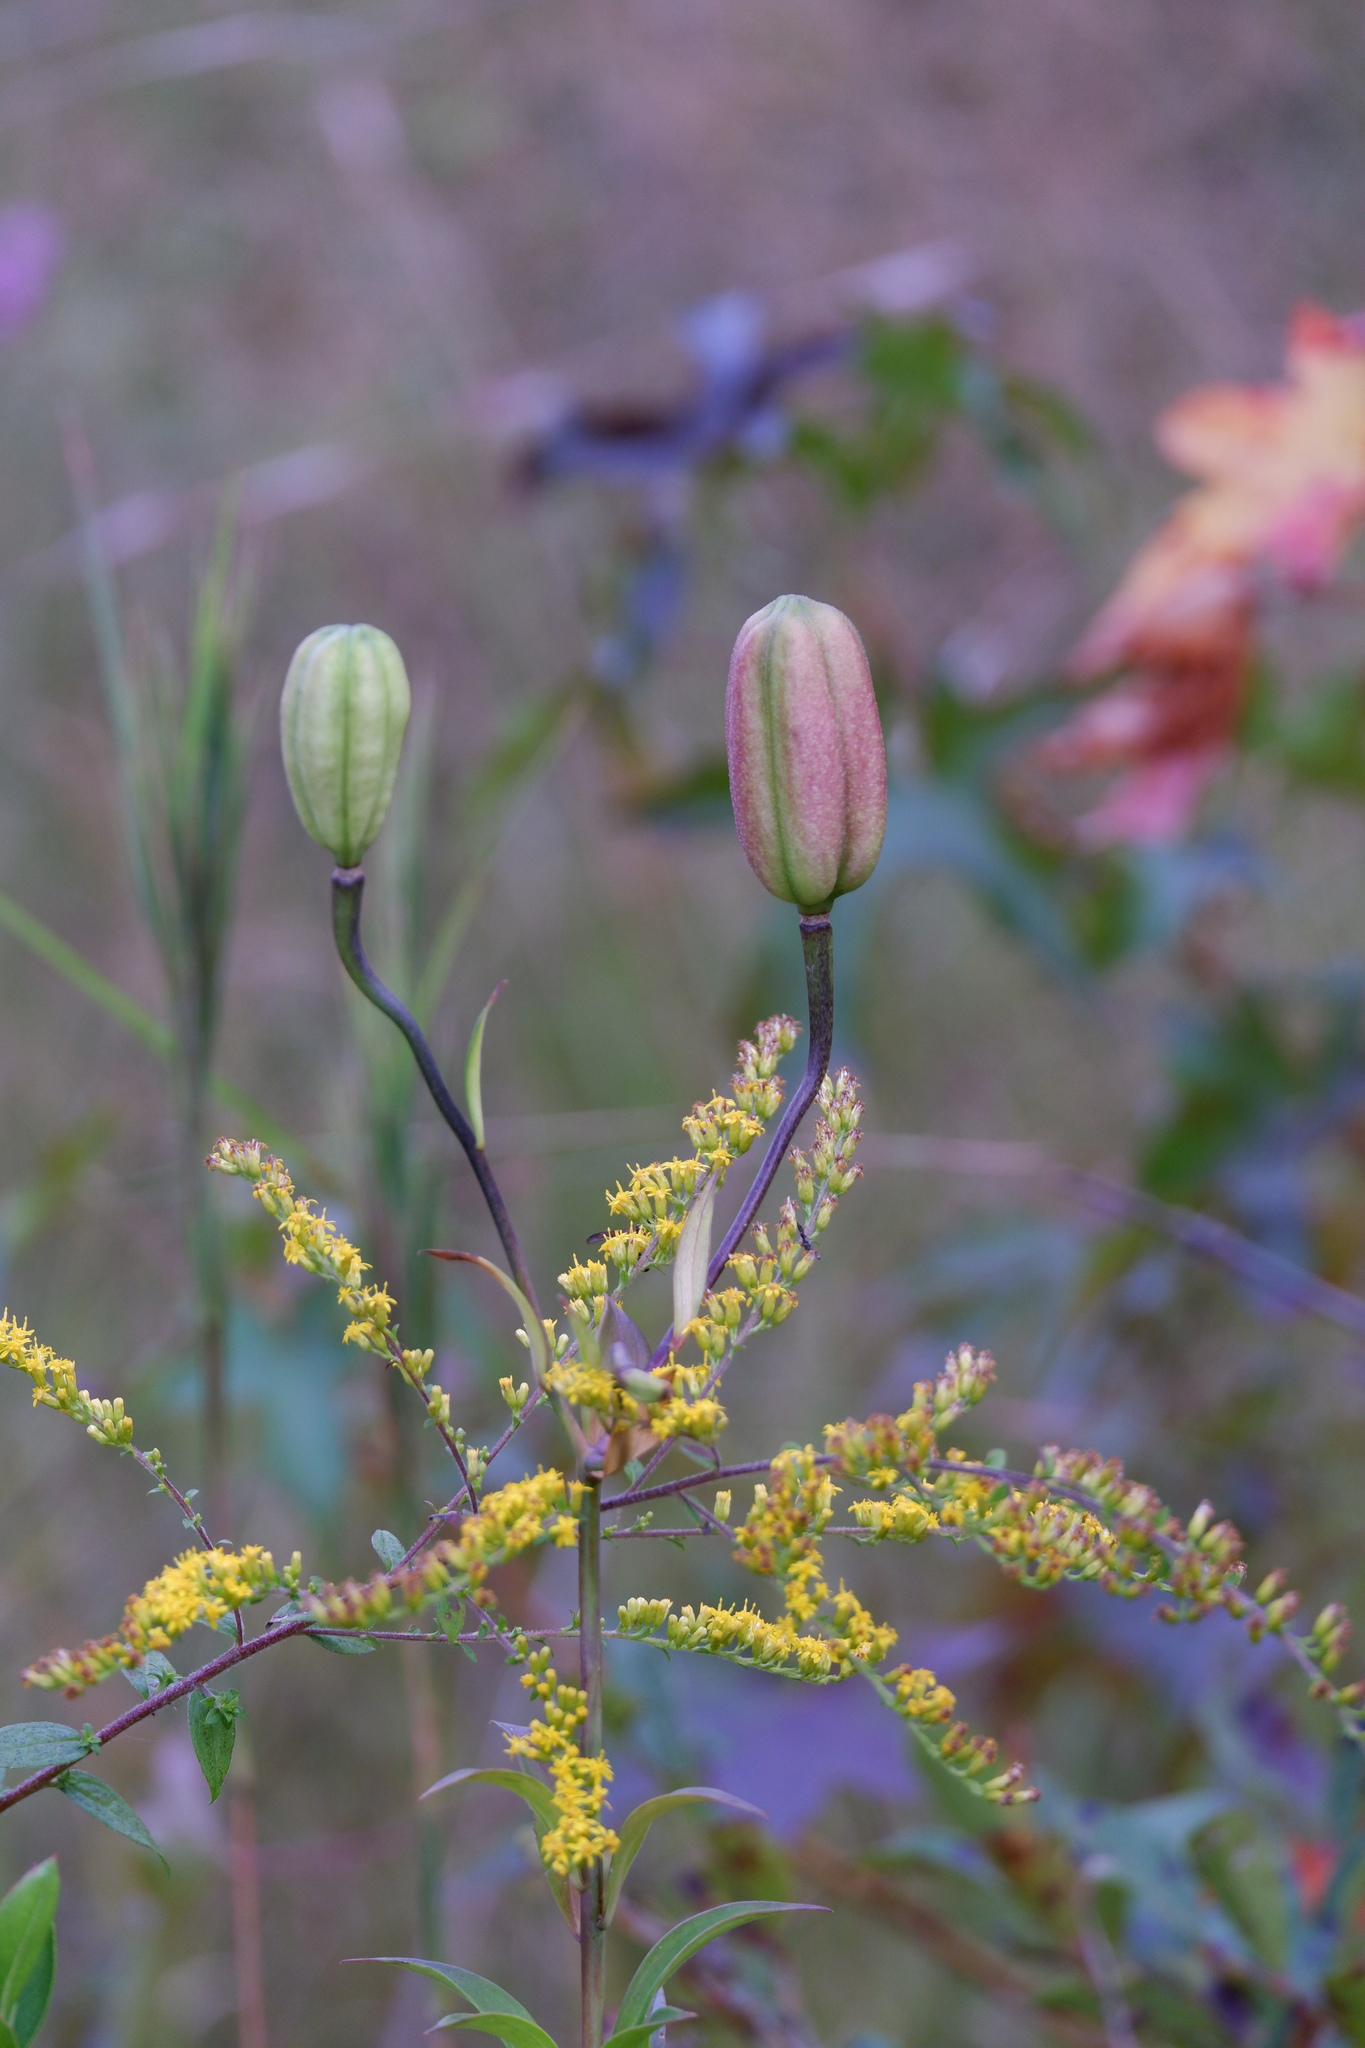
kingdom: Plantae
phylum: Tracheophyta
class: Liliopsida
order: Liliales
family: Liliaceae
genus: Lilium
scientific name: Lilium superbum
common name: American turk's-cap lily
